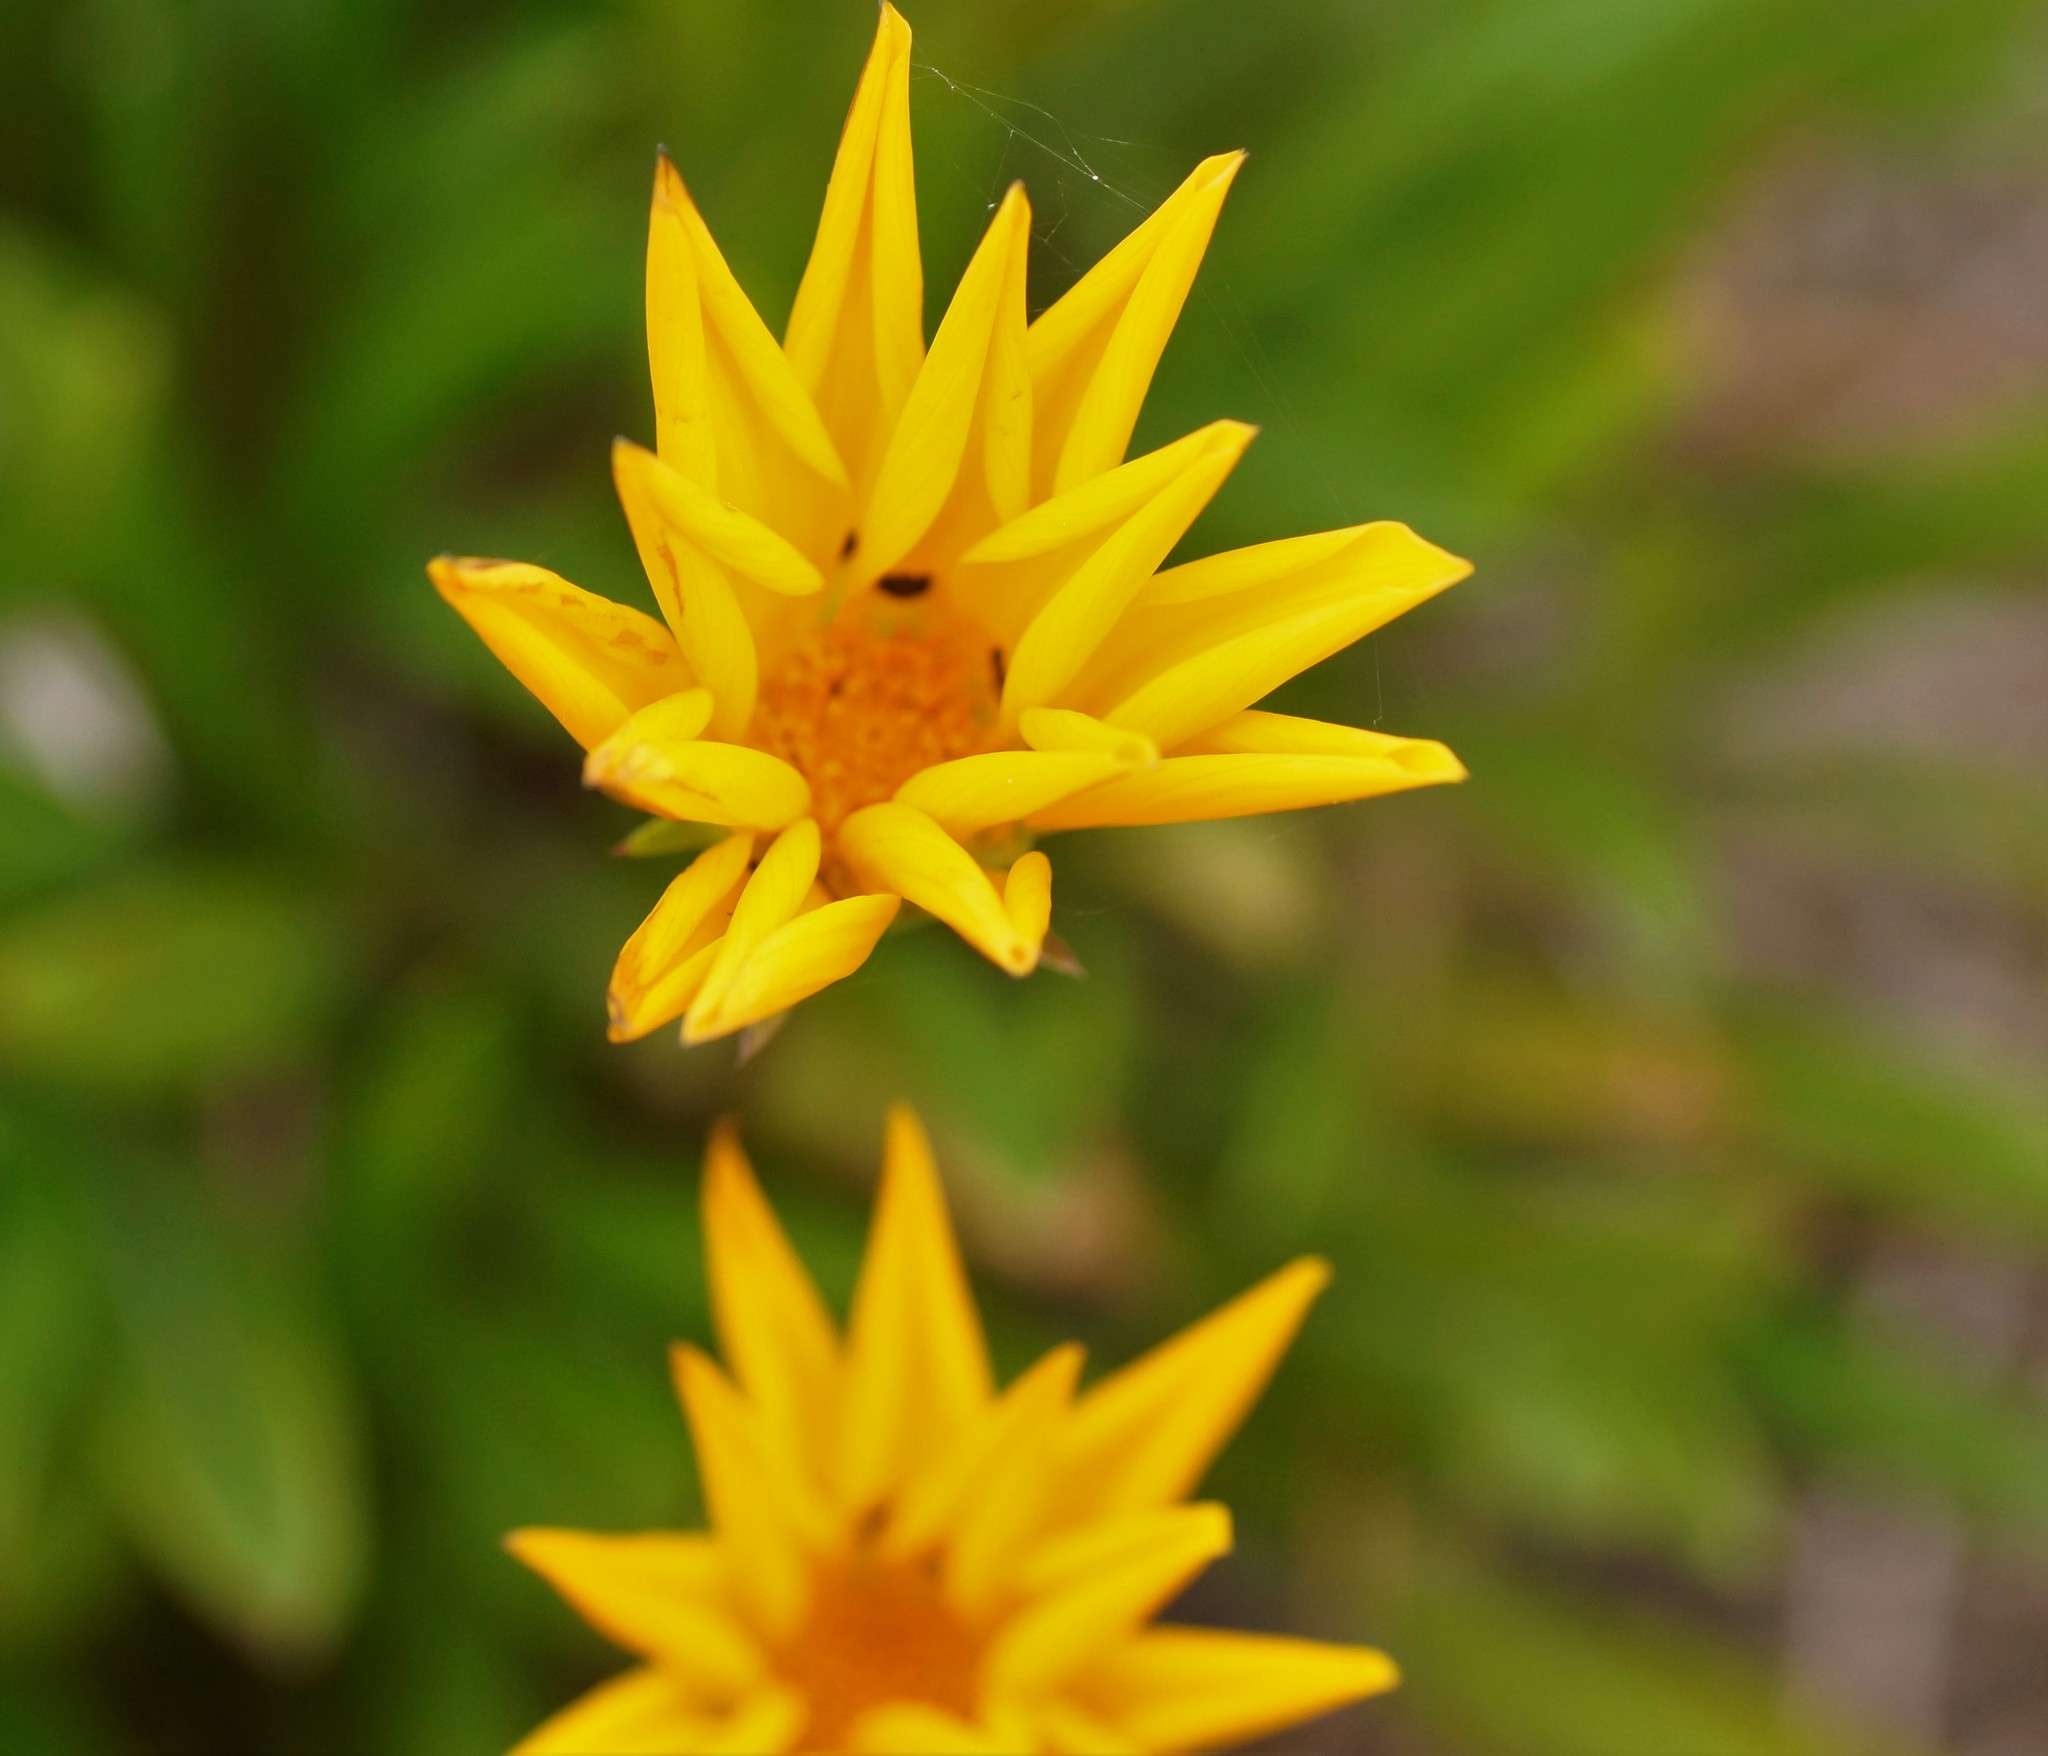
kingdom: Plantae
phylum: Tracheophyta
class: Magnoliopsida
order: Asterales
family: Asteraceae
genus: Gazania
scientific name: Gazania rigens
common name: Treasureflower
